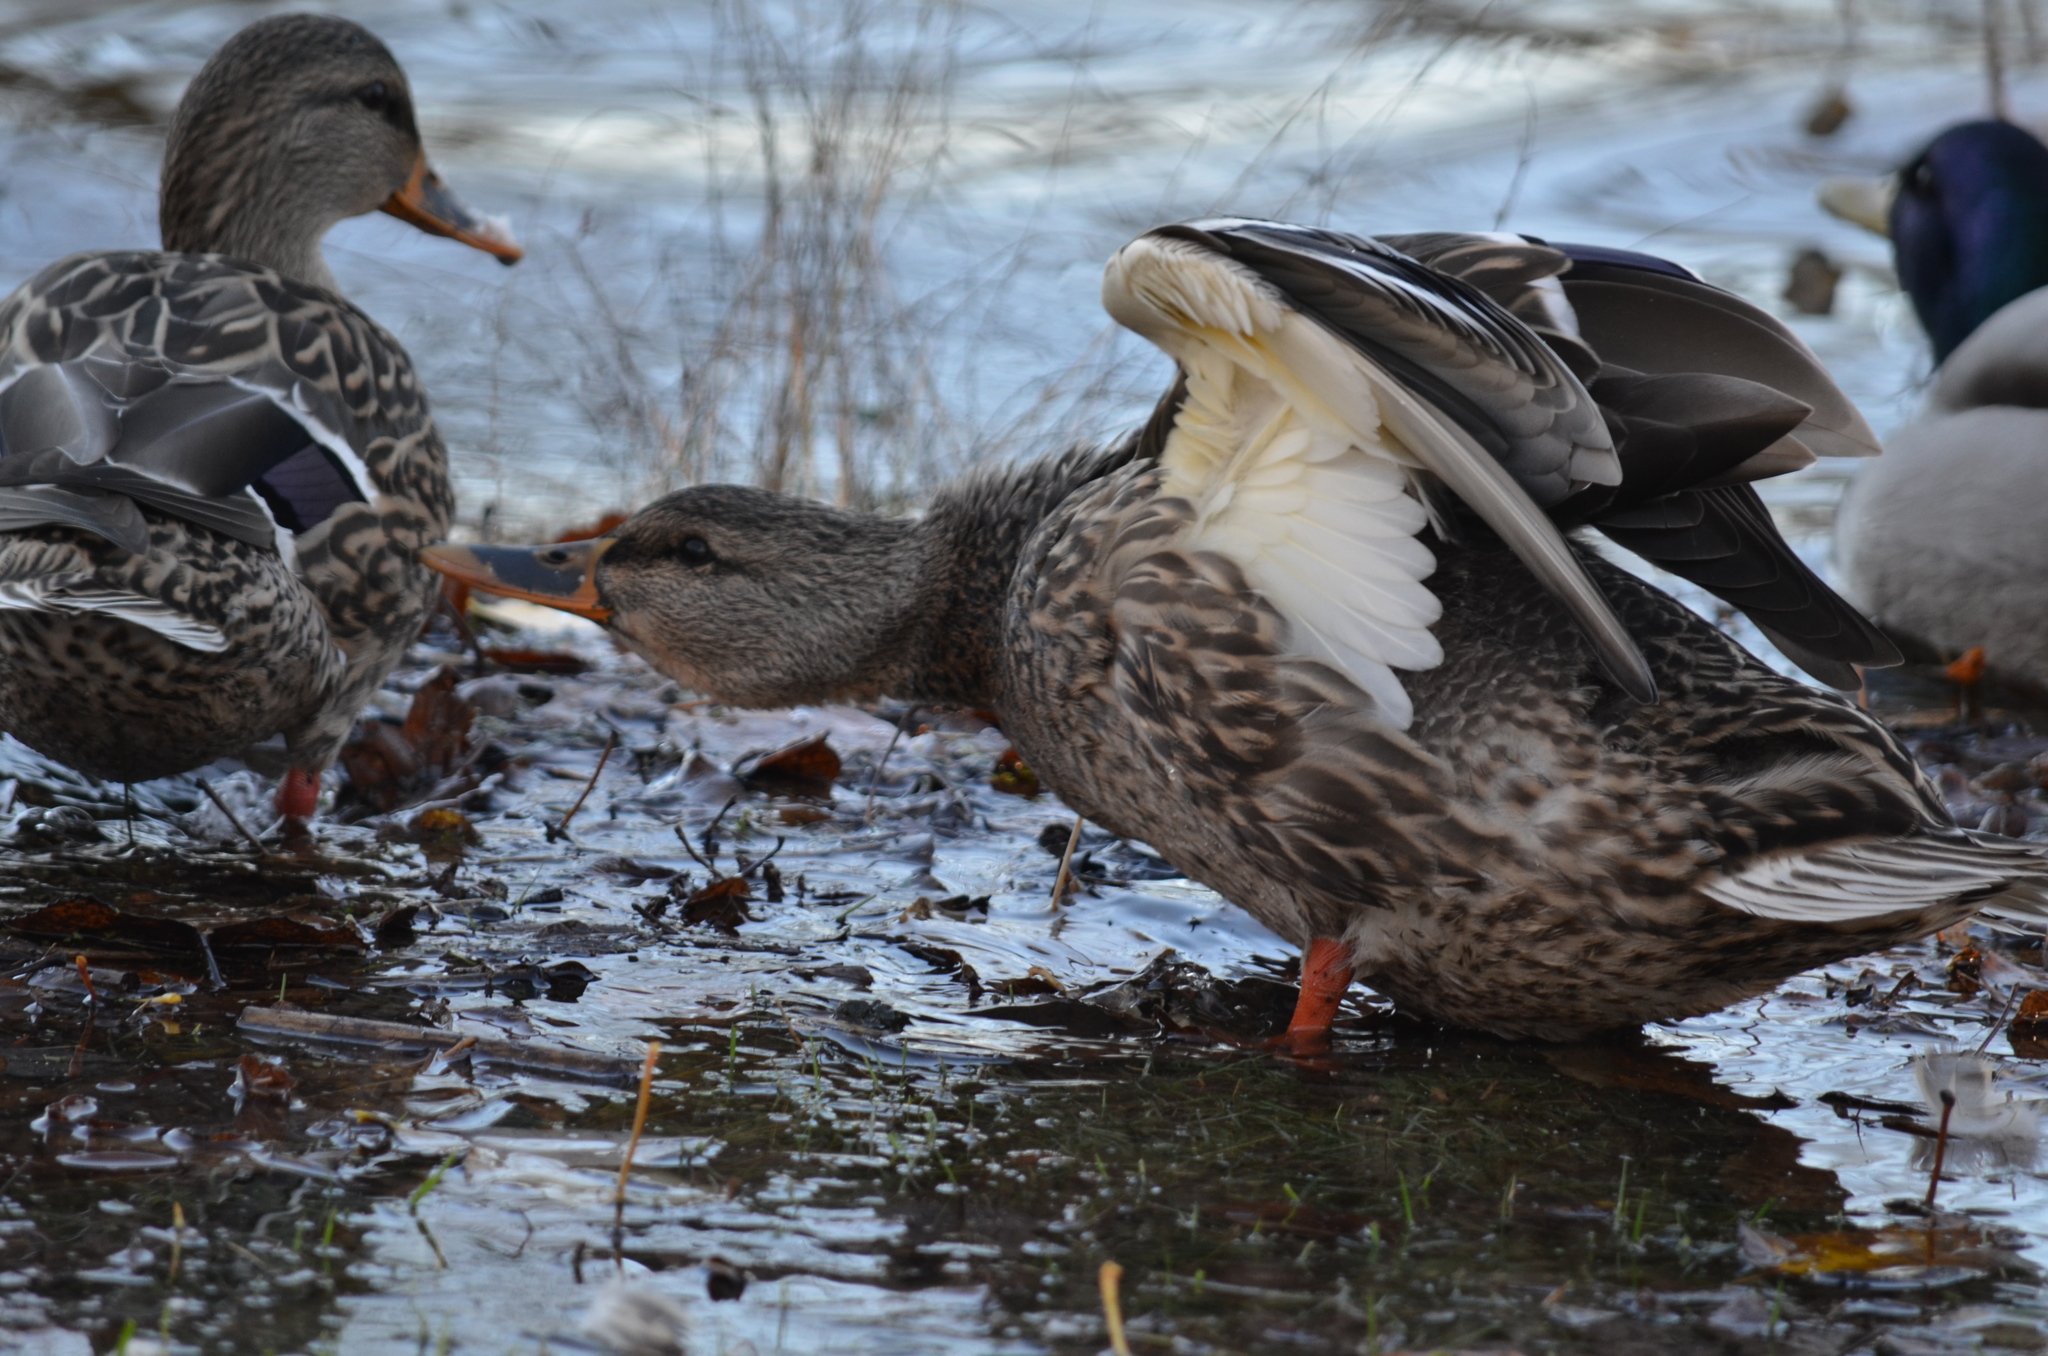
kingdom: Animalia
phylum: Chordata
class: Aves
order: Anseriformes
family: Anatidae
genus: Anas
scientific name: Anas platyrhynchos
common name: Mallard
